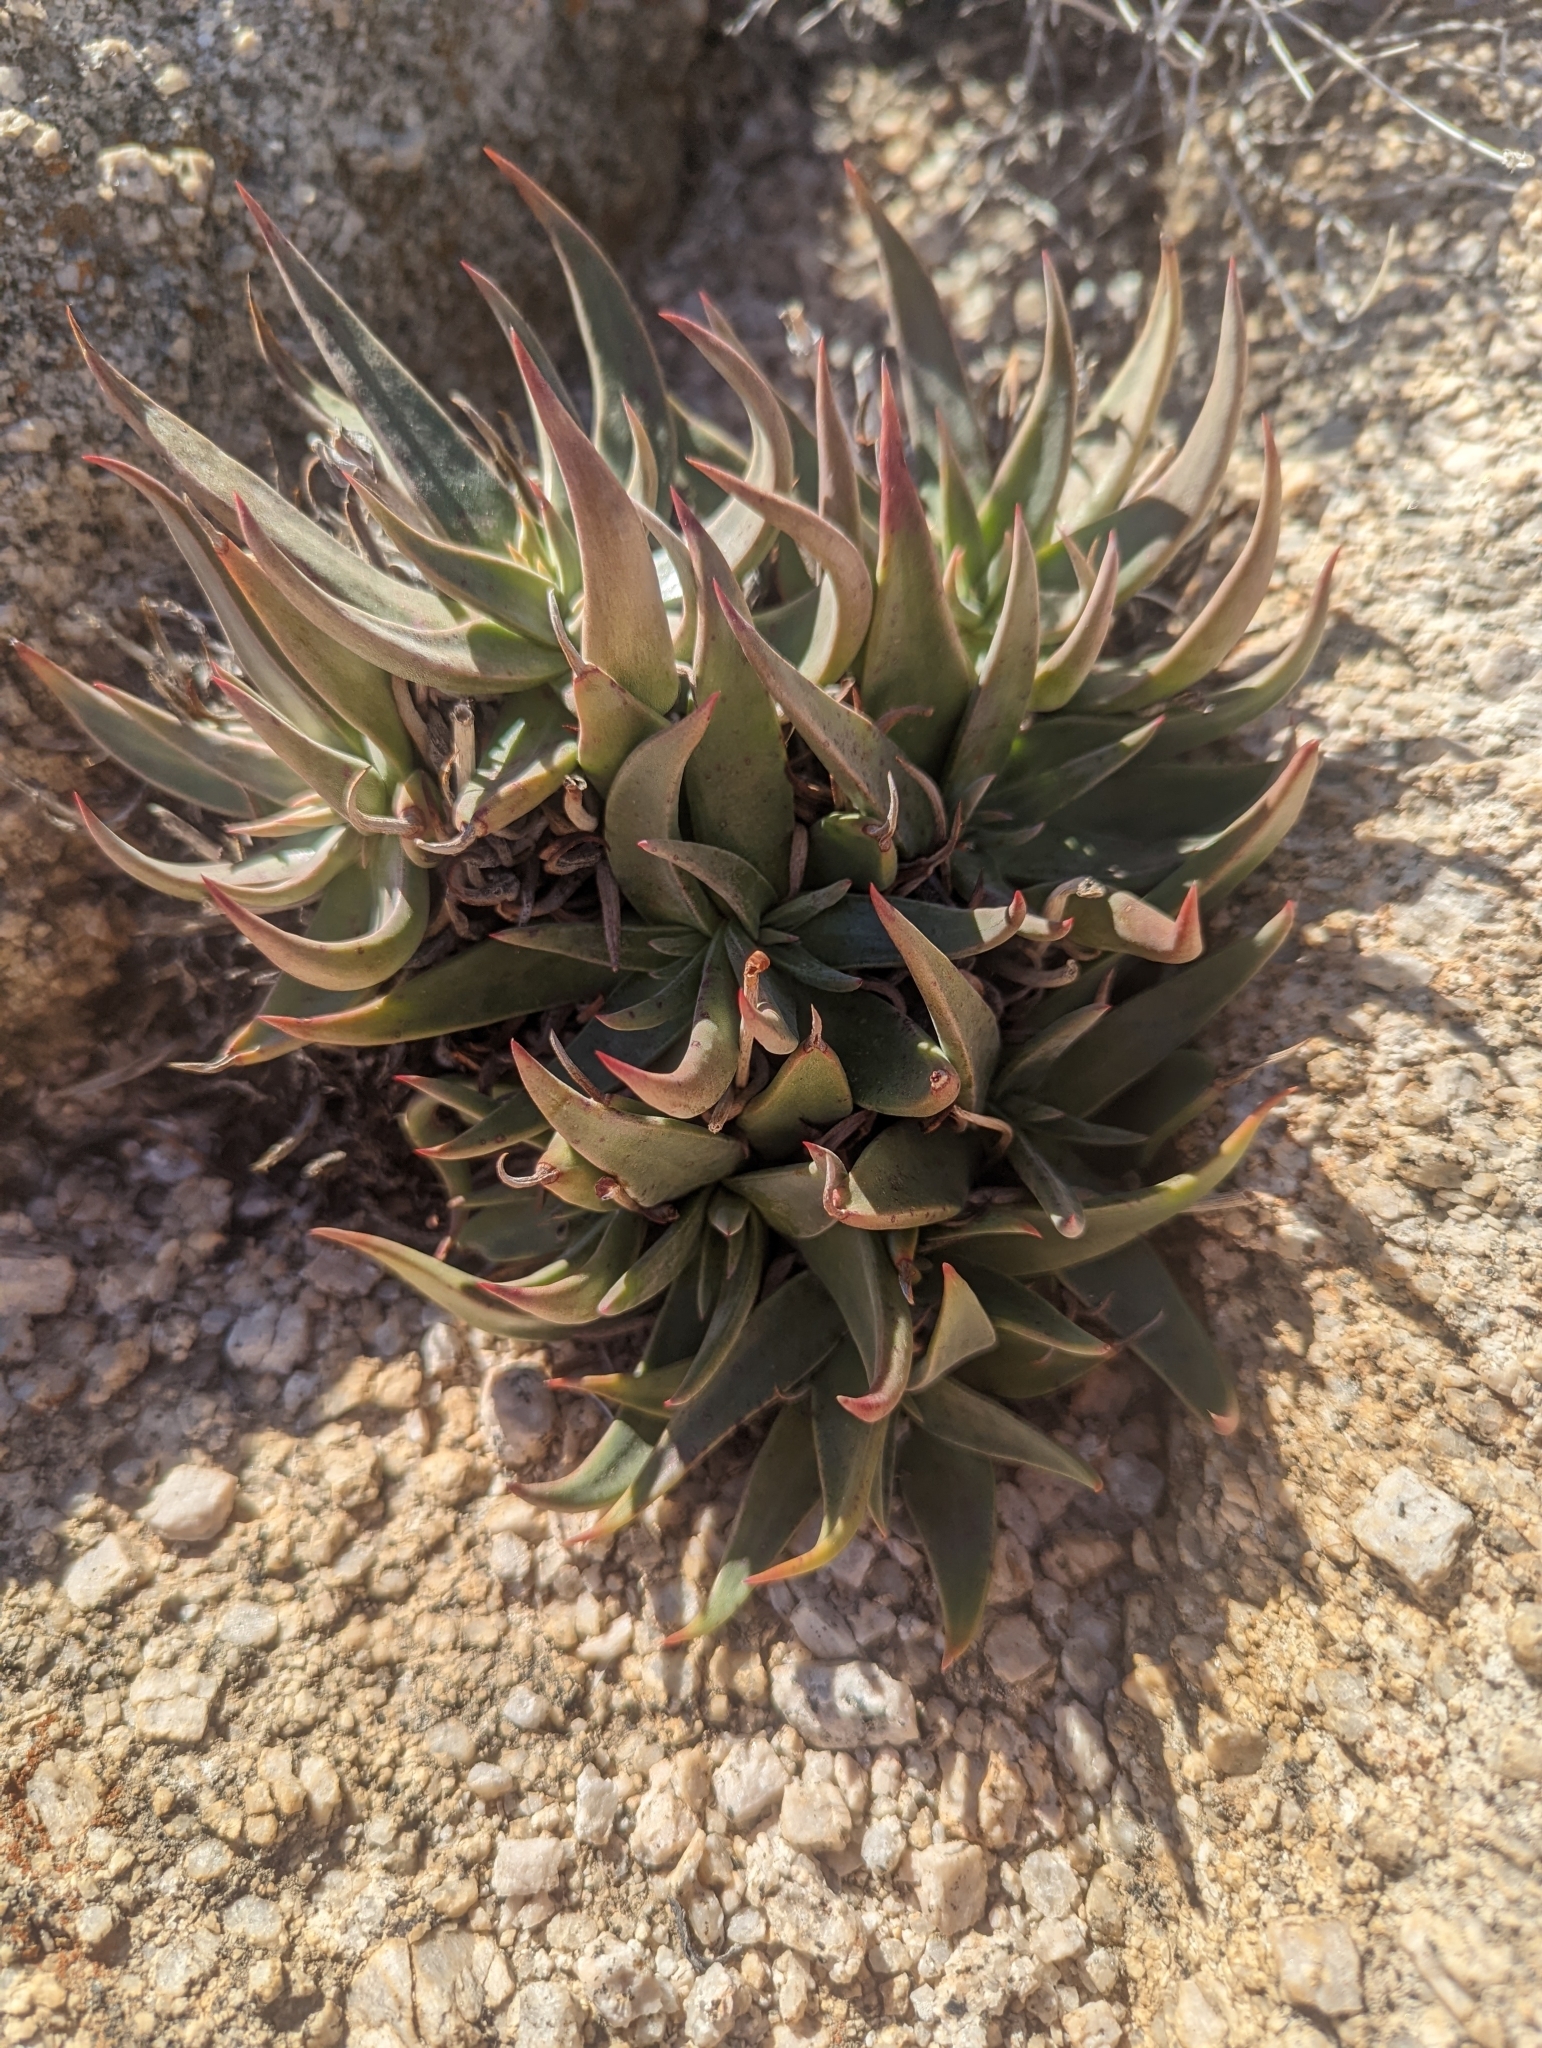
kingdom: Plantae
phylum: Tracheophyta
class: Magnoliopsida
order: Saxifragales
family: Crassulaceae
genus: Dudleya
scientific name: Dudleya saxosa
